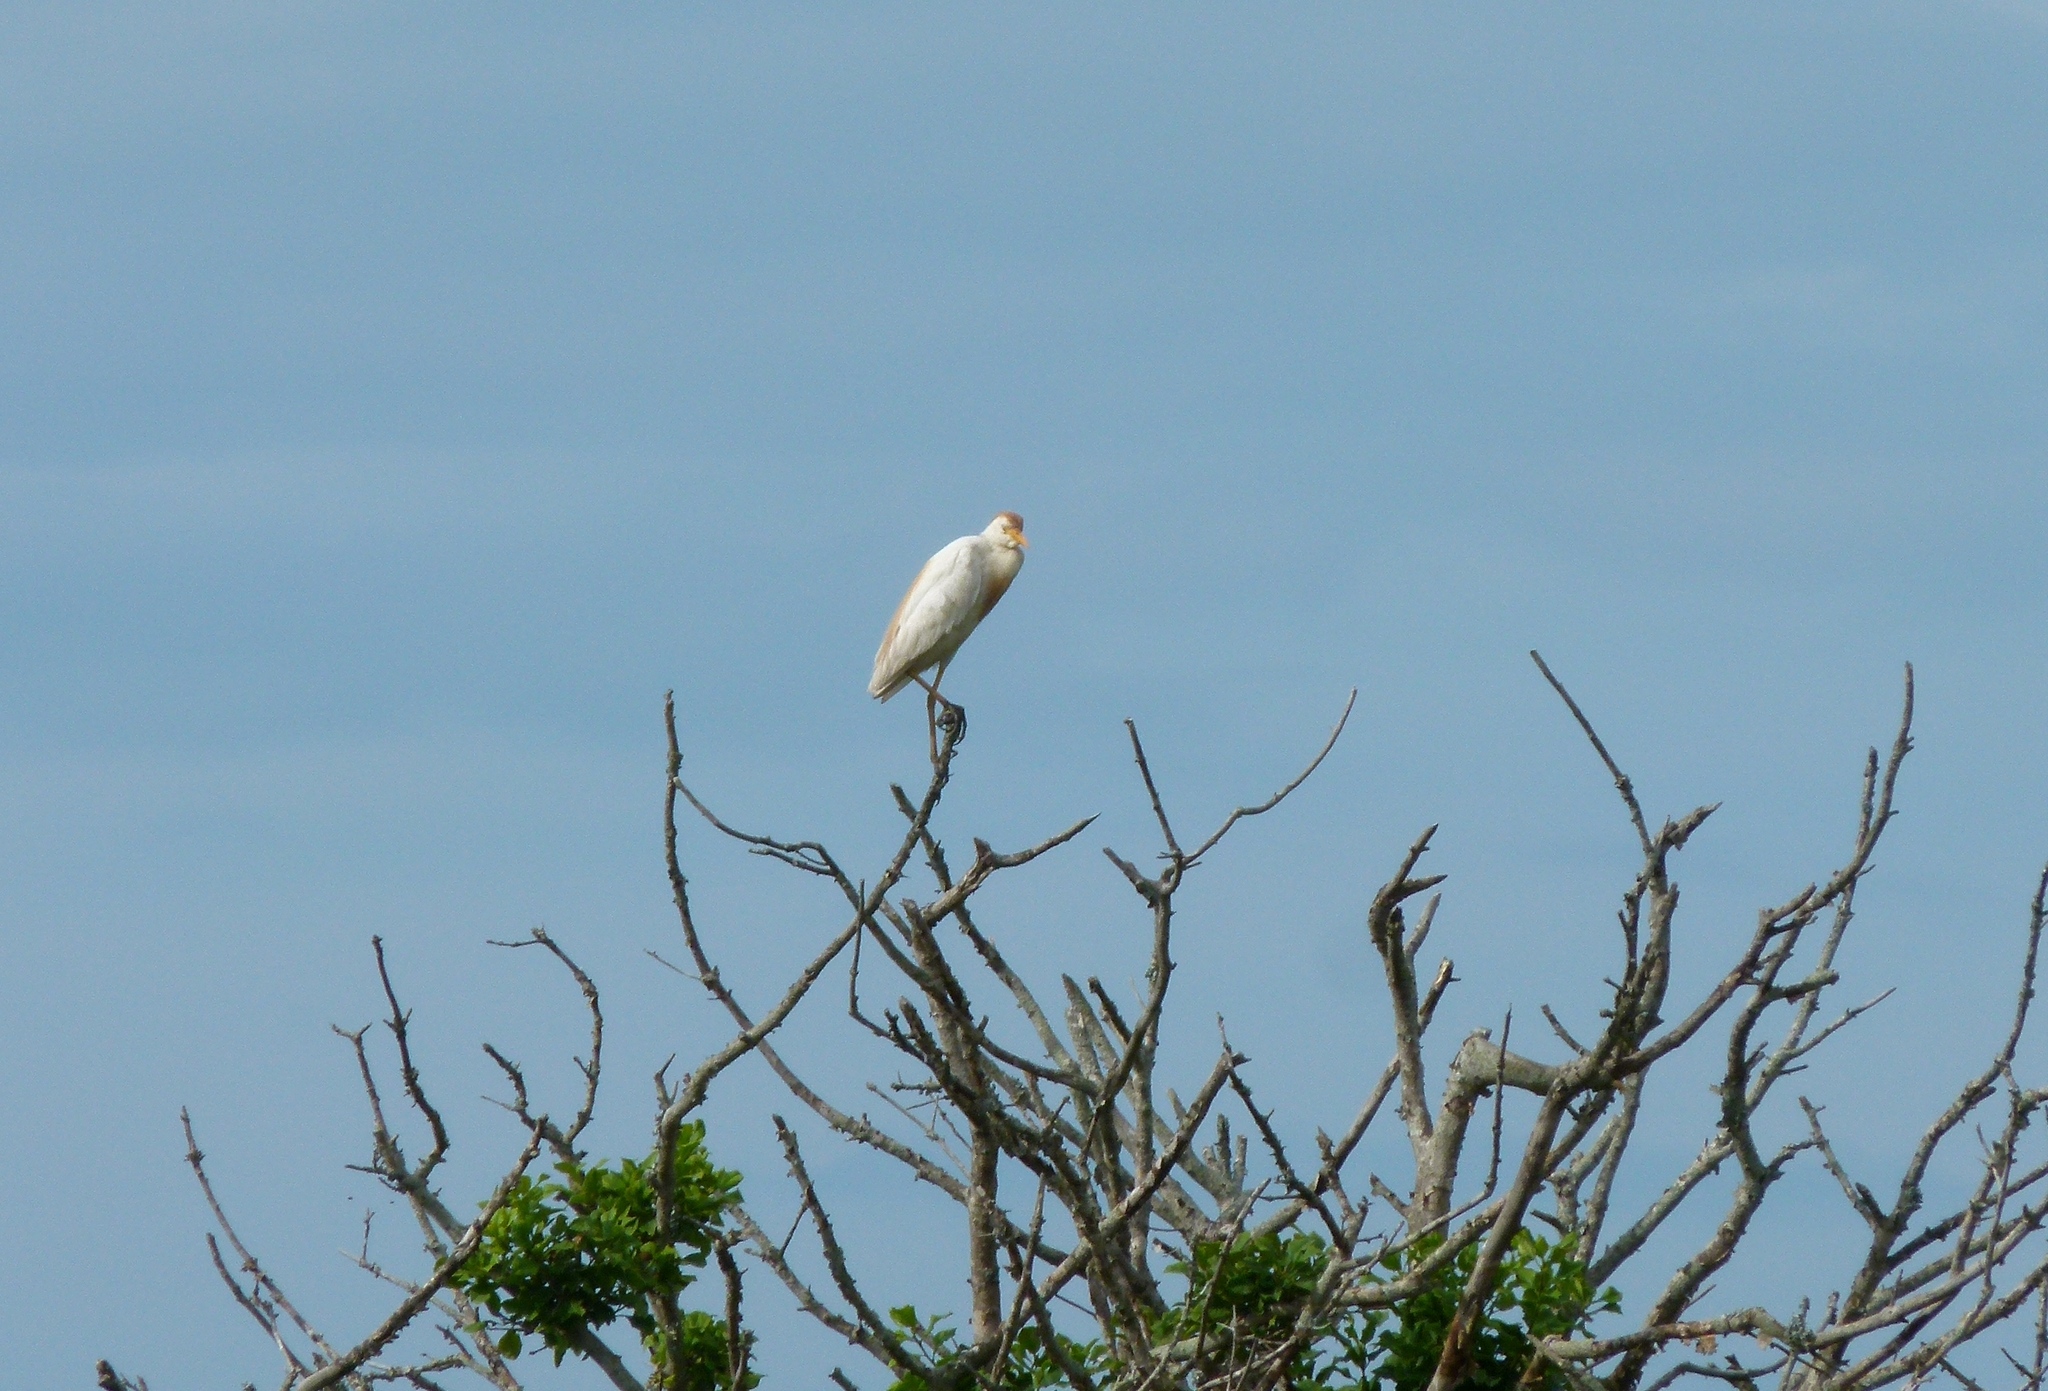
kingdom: Animalia
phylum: Chordata
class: Aves
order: Pelecaniformes
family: Ardeidae
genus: Bubulcus
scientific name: Bubulcus ibis
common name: Cattle egret
